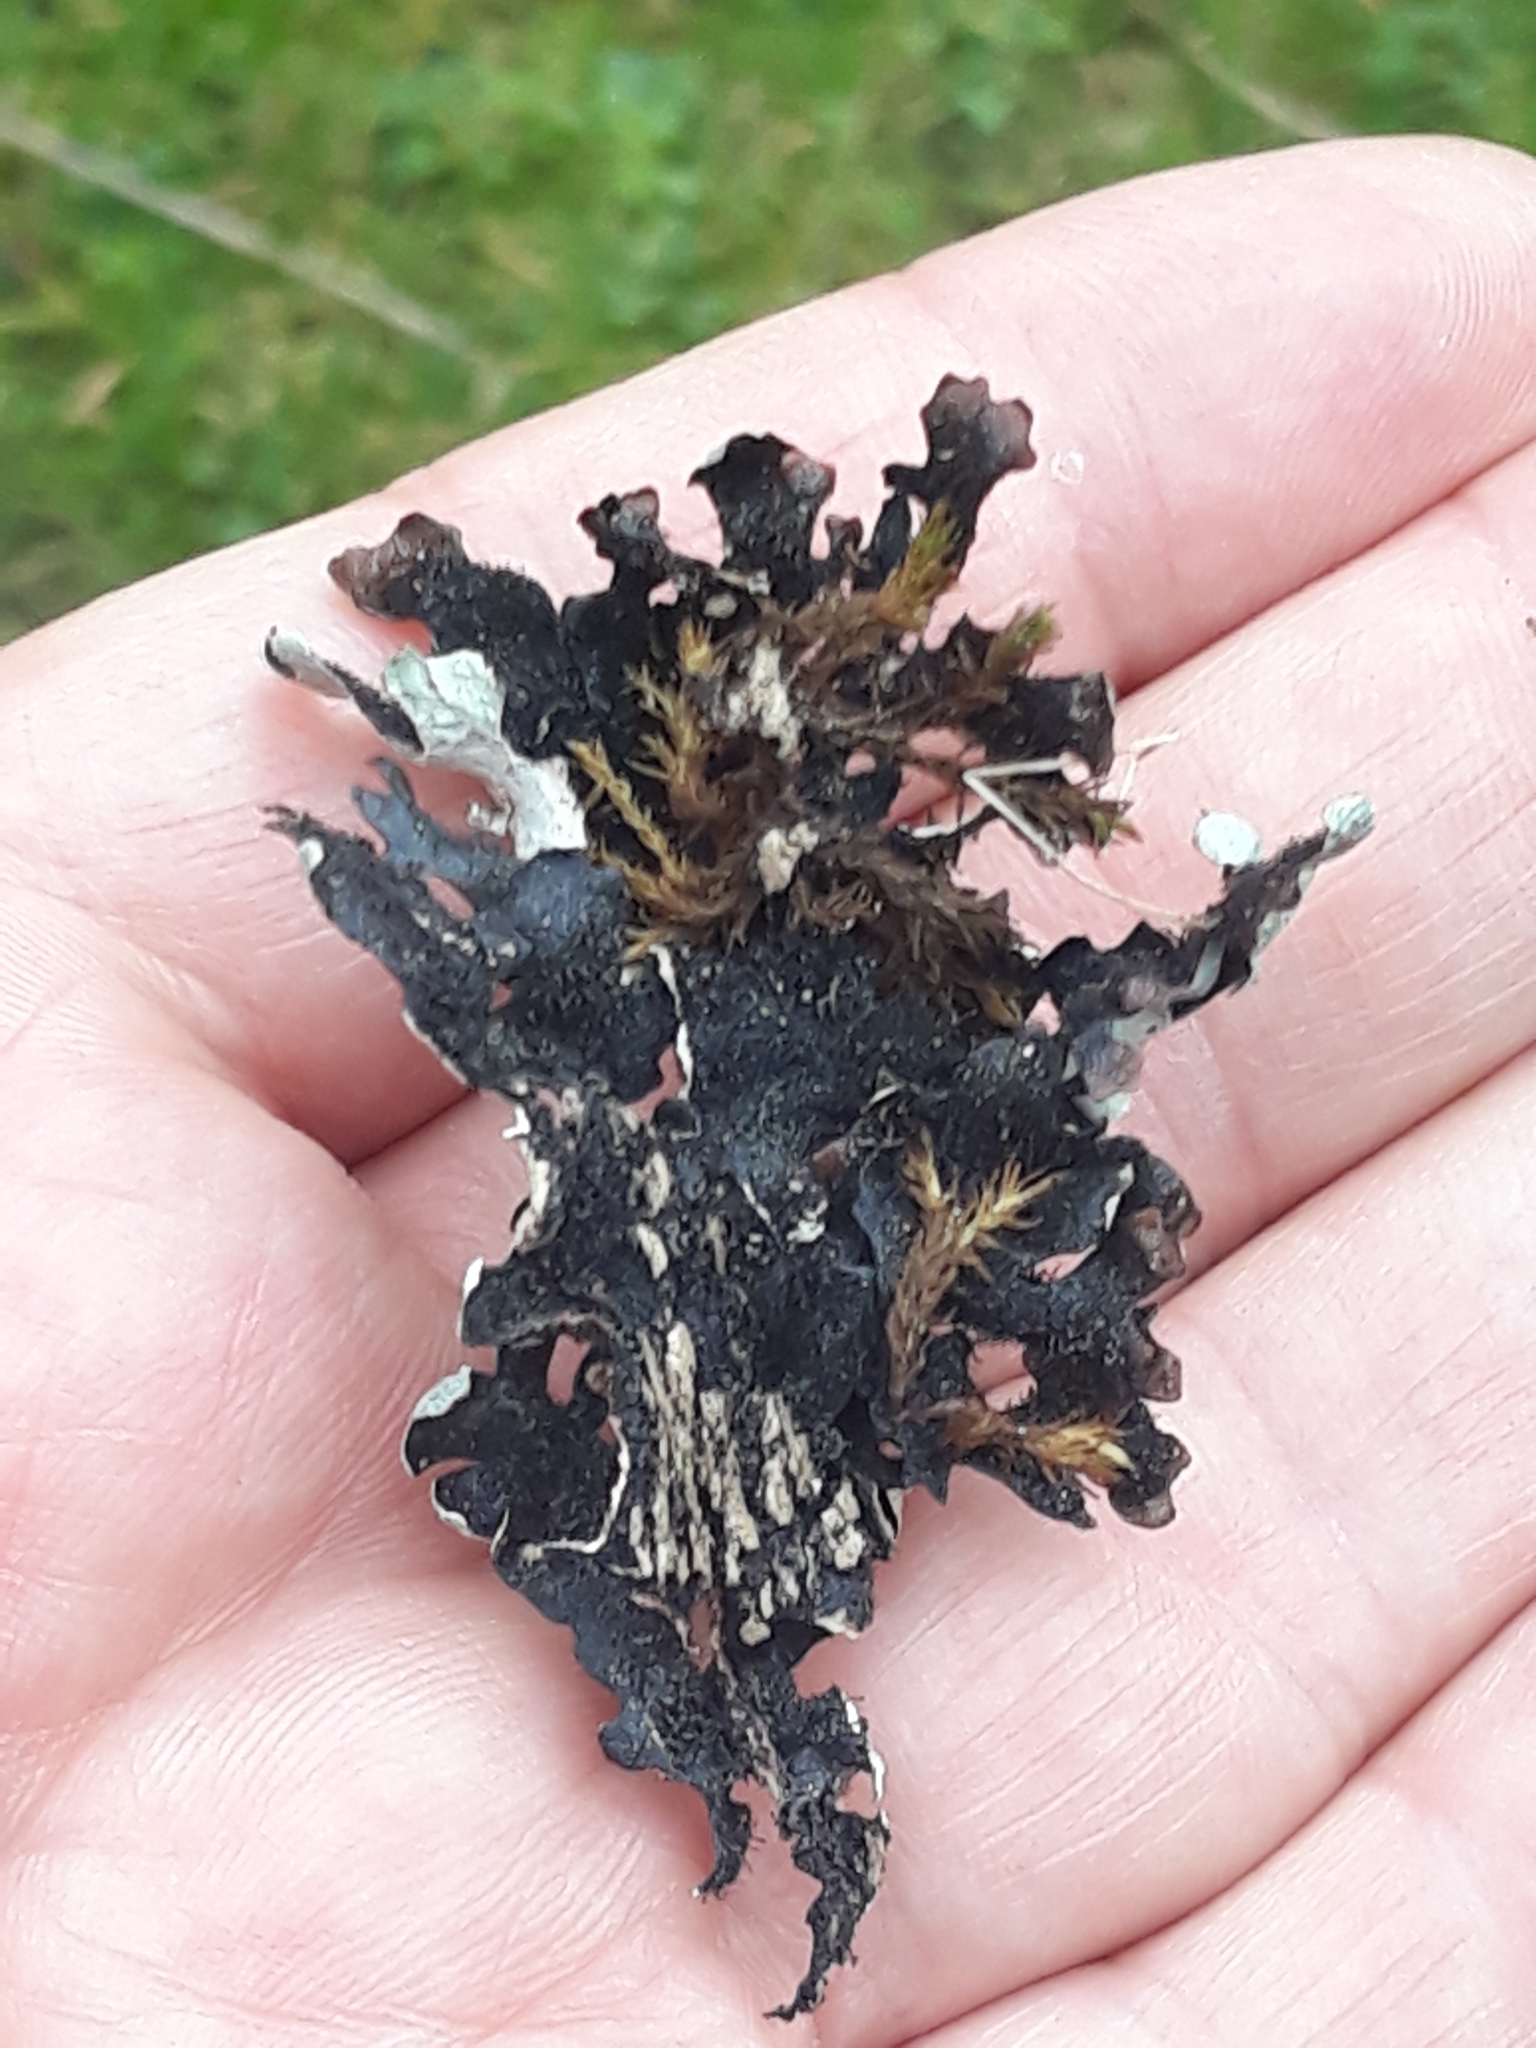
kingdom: Fungi
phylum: Ascomycota
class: Lecanoromycetes
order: Lecanorales
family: Parmeliaceae
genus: Parmelia
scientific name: Parmelia sulcata
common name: Netted shield lichen
